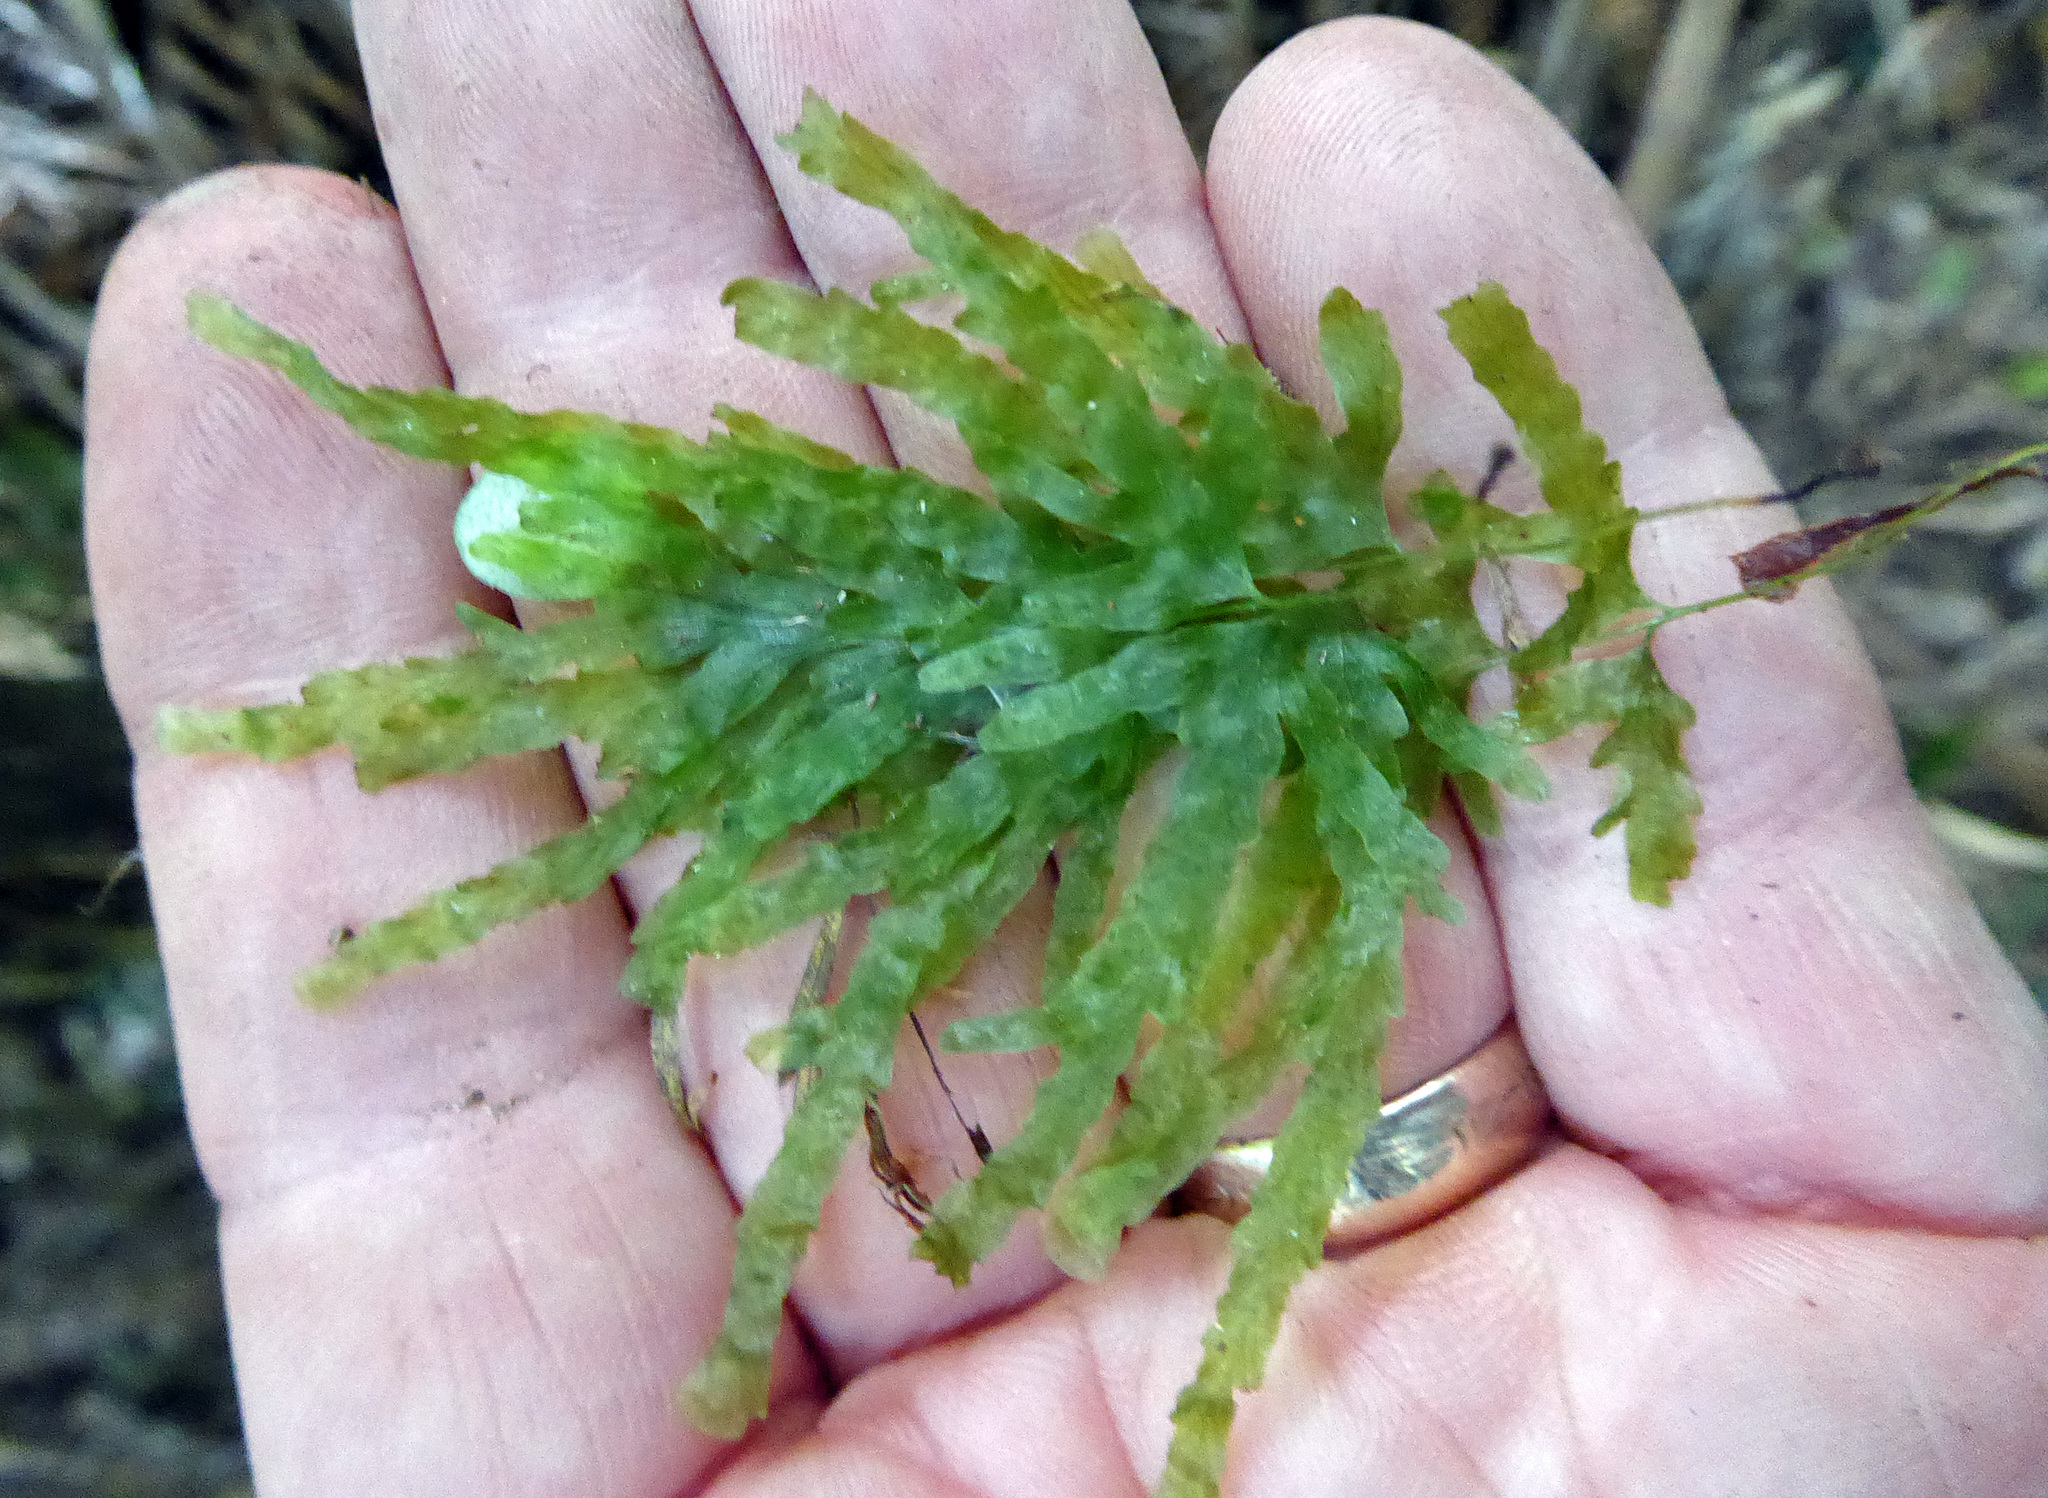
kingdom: Plantae
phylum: Tracheophyta
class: Polypodiopsida
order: Hymenophyllales
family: Hymenophyllaceae
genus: Polyphlebium
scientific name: Polyphlebium venosum
